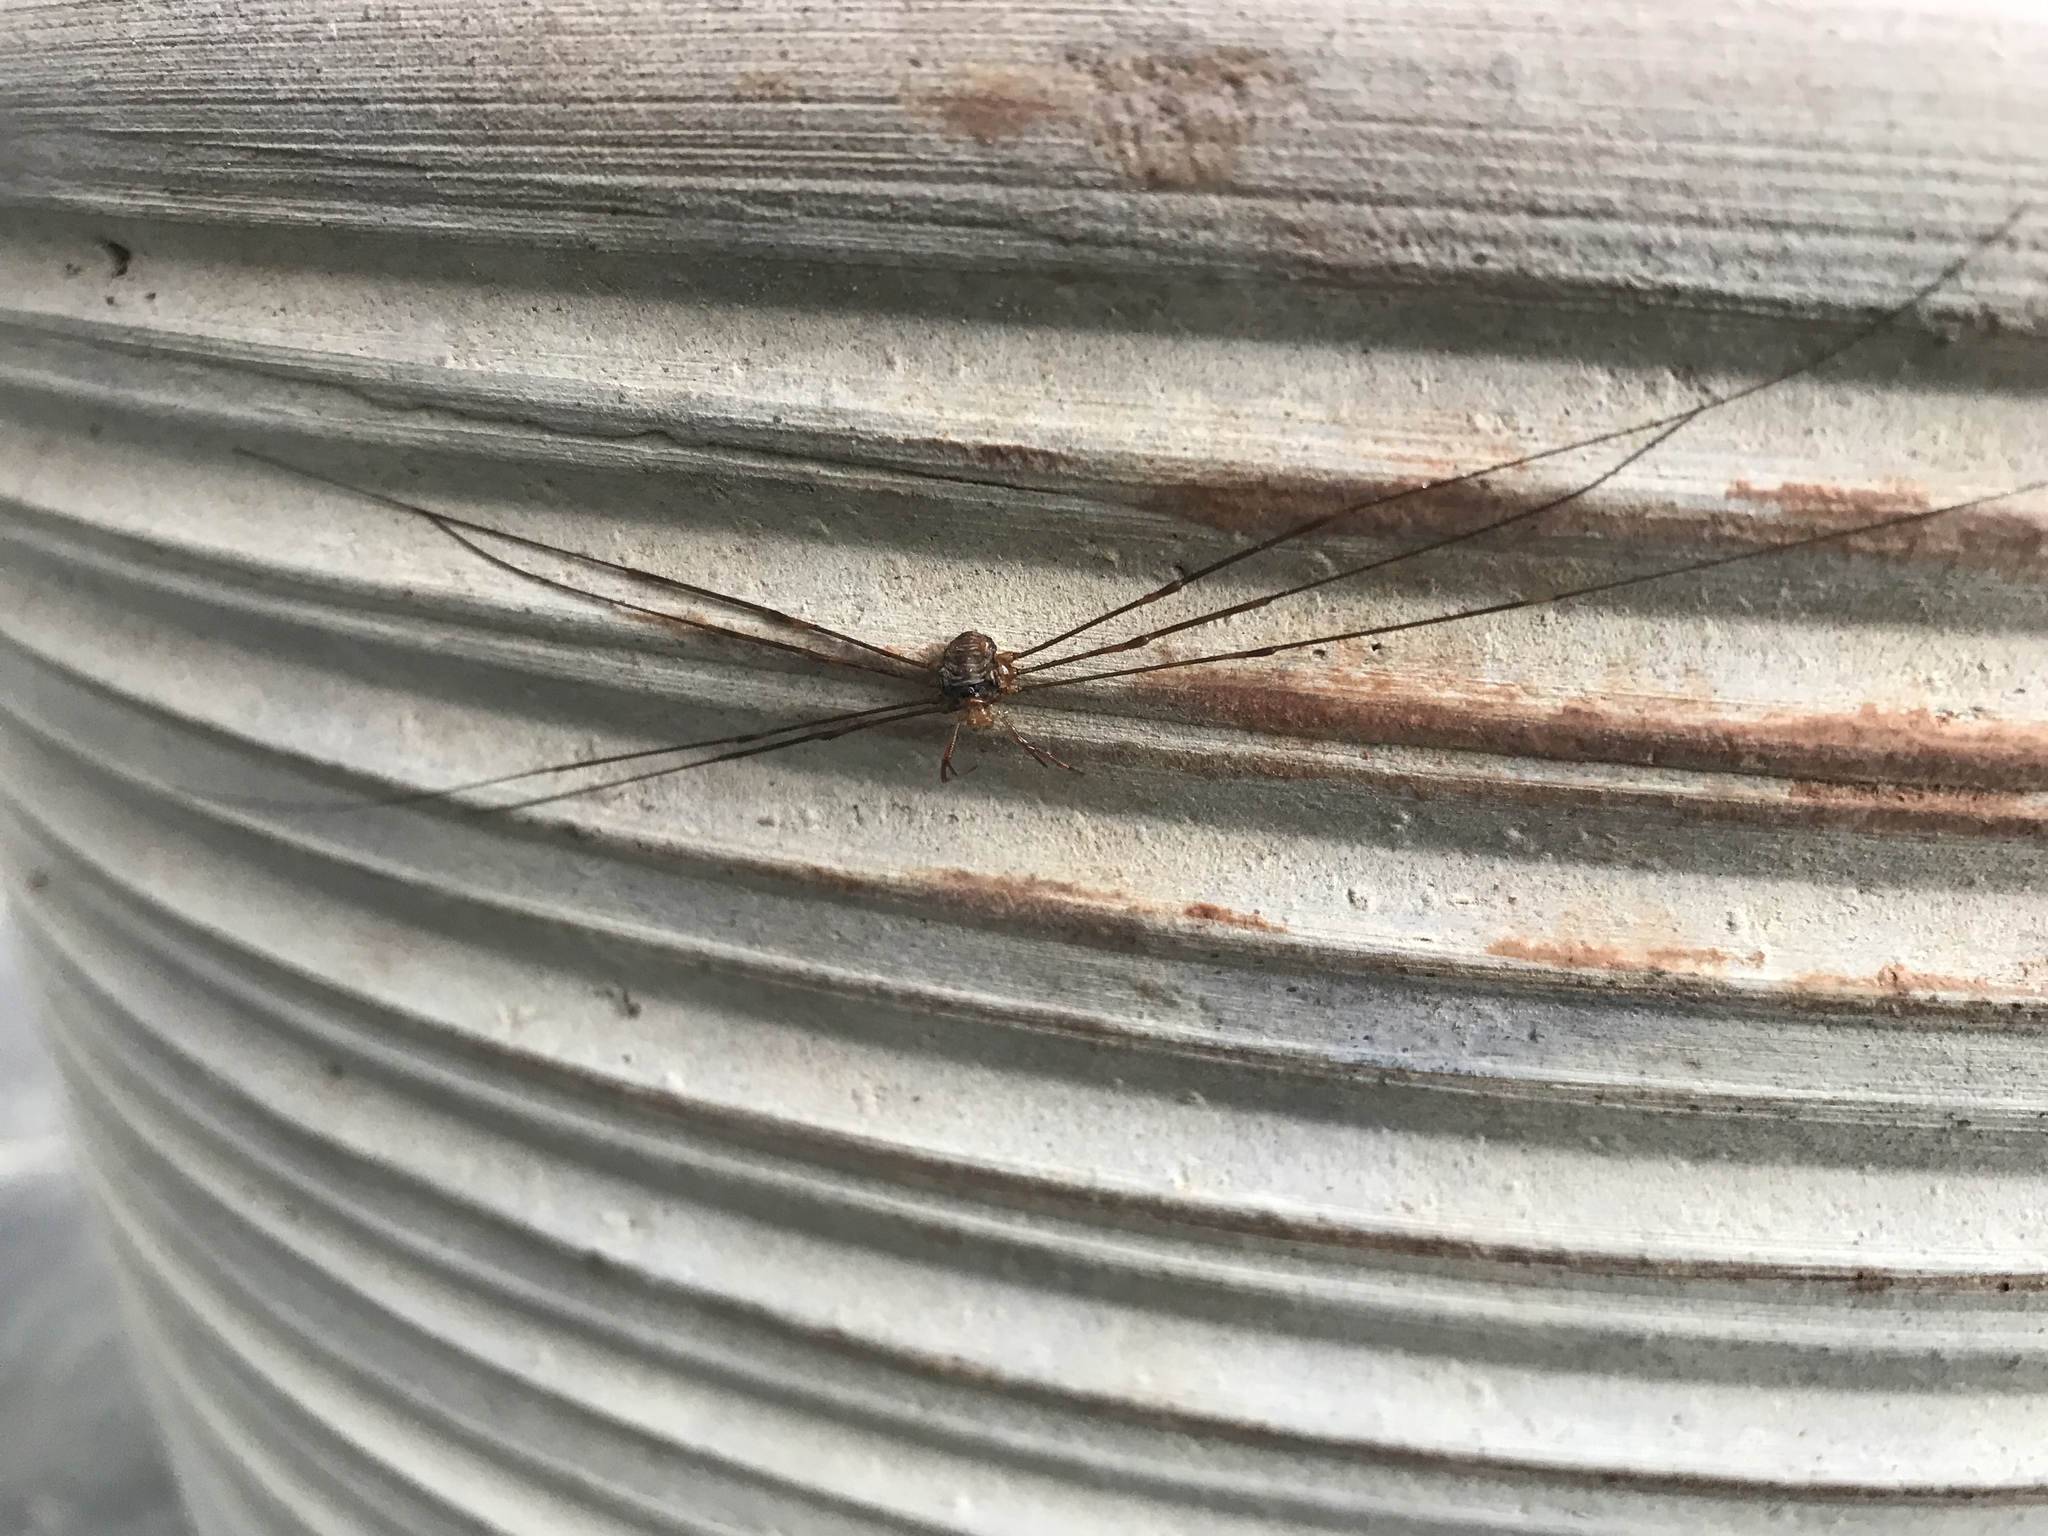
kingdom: Animalia
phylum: Arthropoda
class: Arachnida
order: Opiliones
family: Phalangiidae
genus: Dicranopalpus
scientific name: Dicranopalpus ramosus
